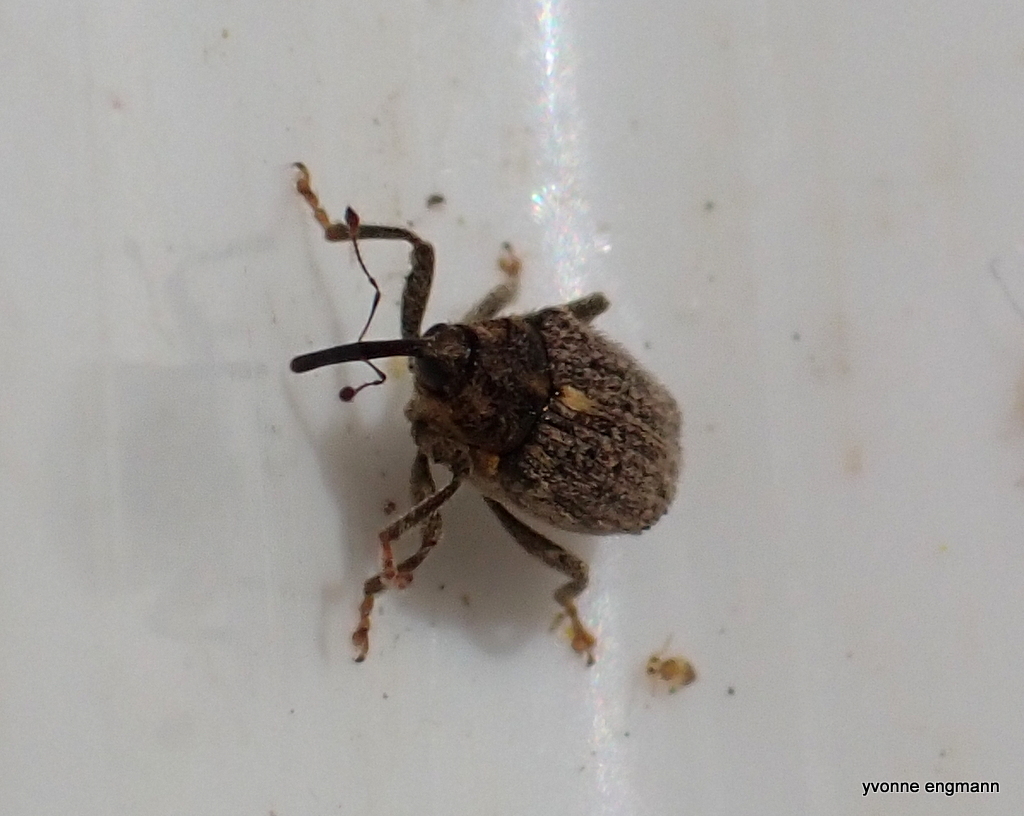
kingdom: Animalia
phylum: Arthropoda
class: Insecta
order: Coleoptera
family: Curculionidae
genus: Ceutorhynchus
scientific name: Ceutorhynchus pallidactylus
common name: Cabbage stem weavil
